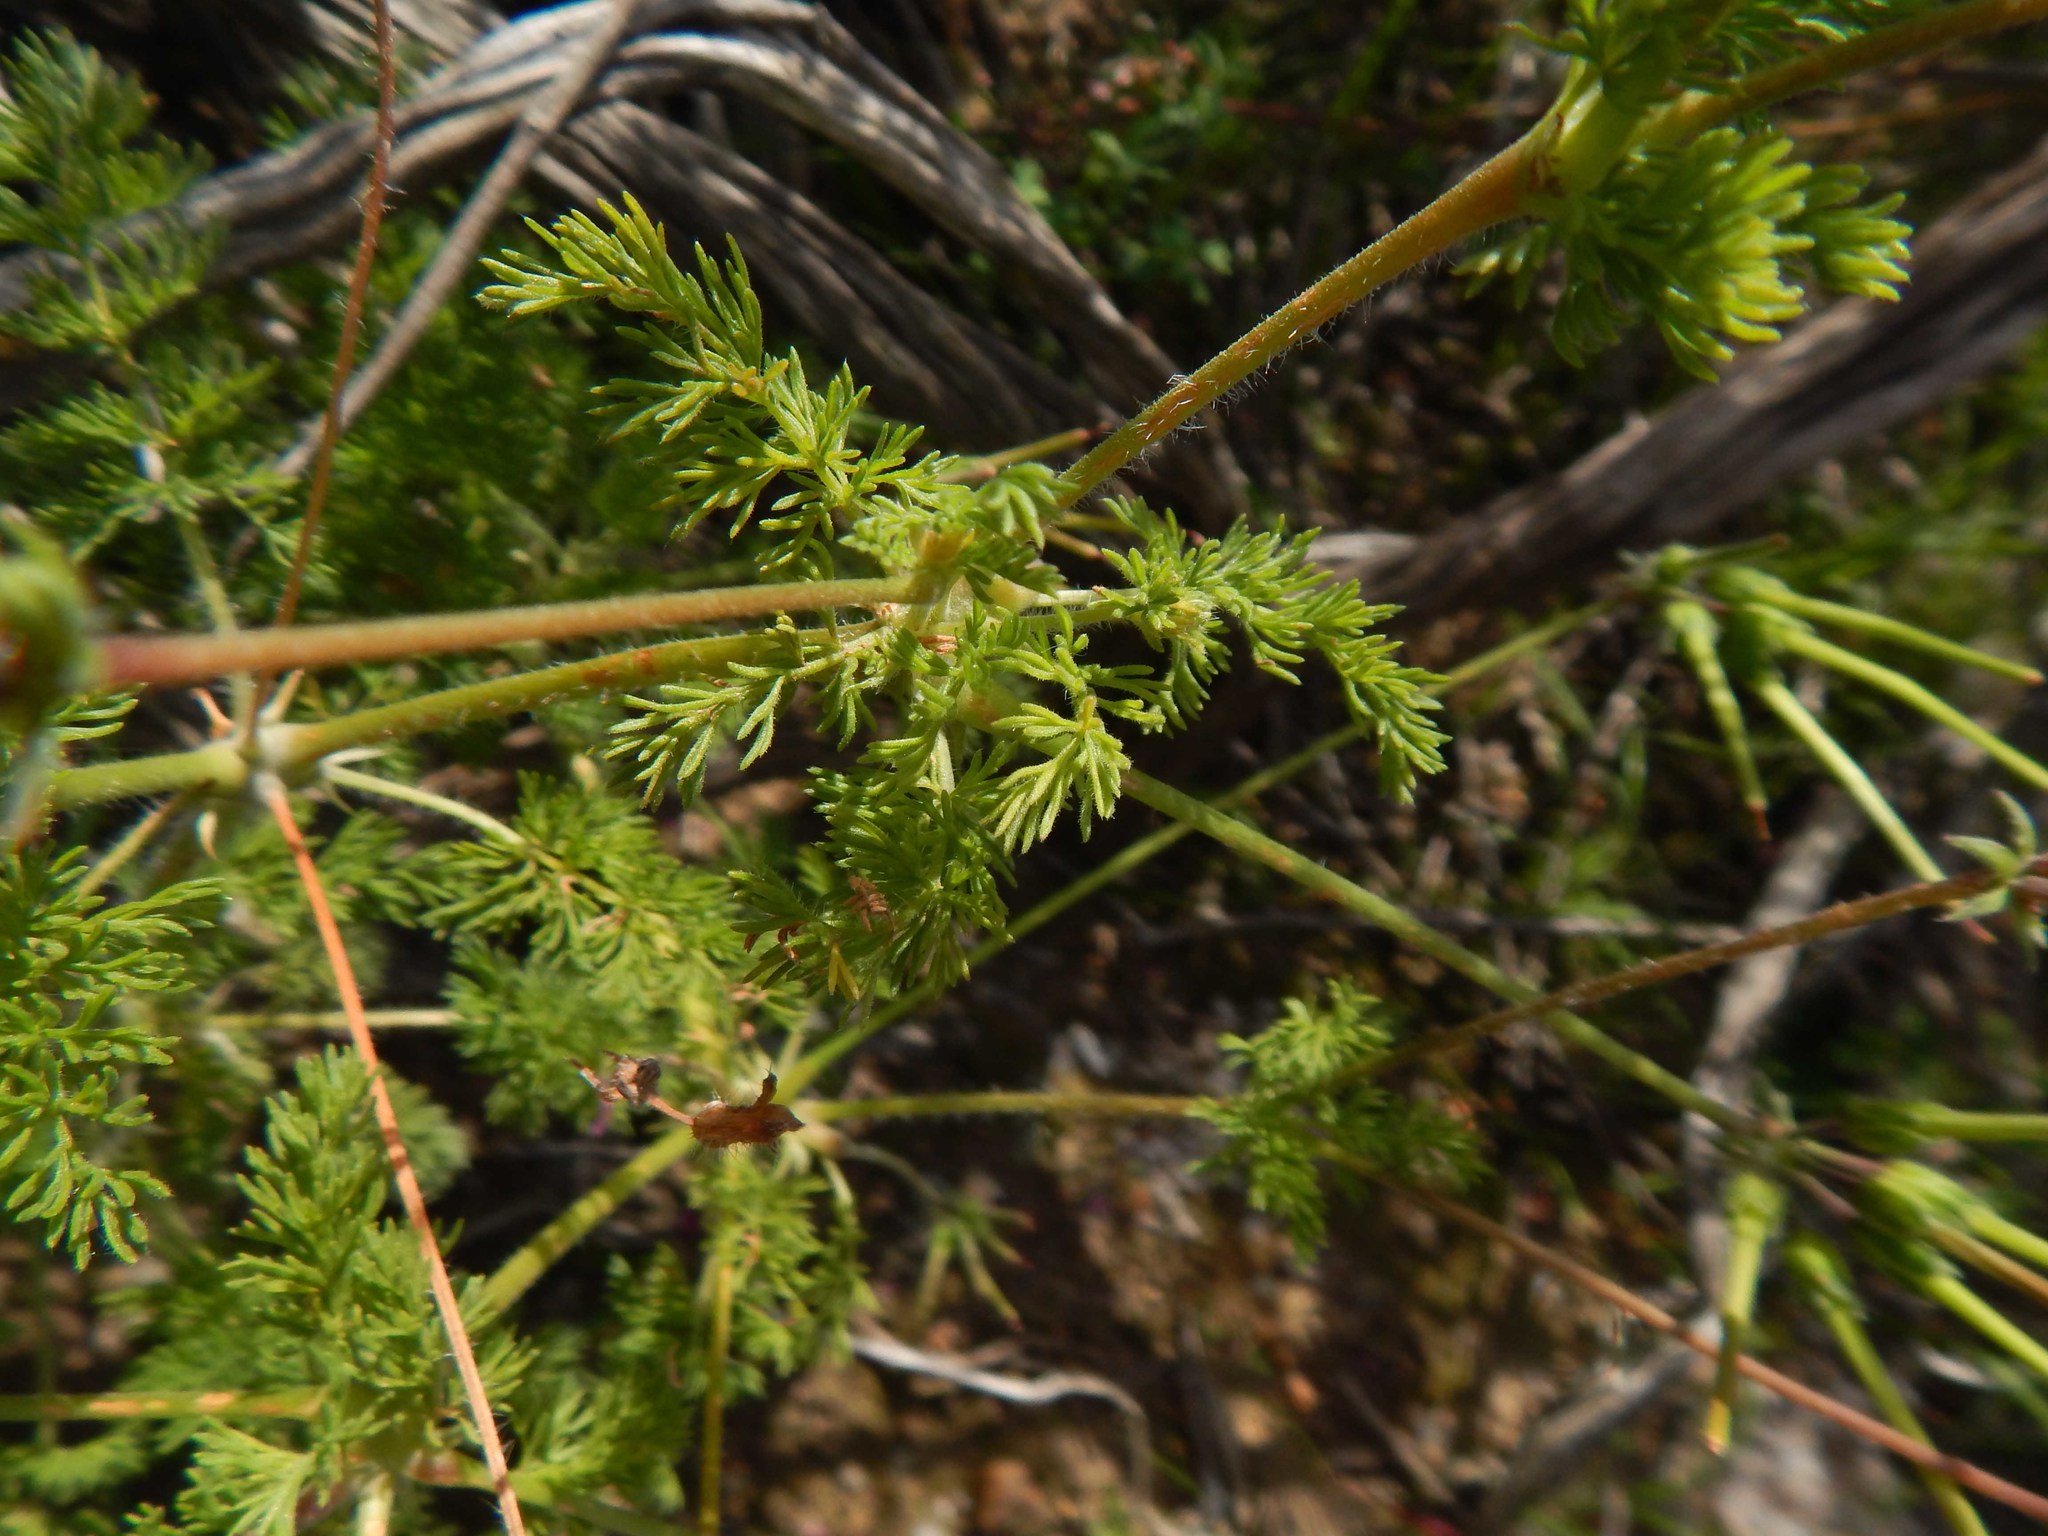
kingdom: Plantae
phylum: Tracheophyta
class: Magnoliopsida
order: Geraniales
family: Geraniaceae
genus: Pelargonium
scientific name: Pelargonium hirtum
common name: Fine-leaf pelargonium
